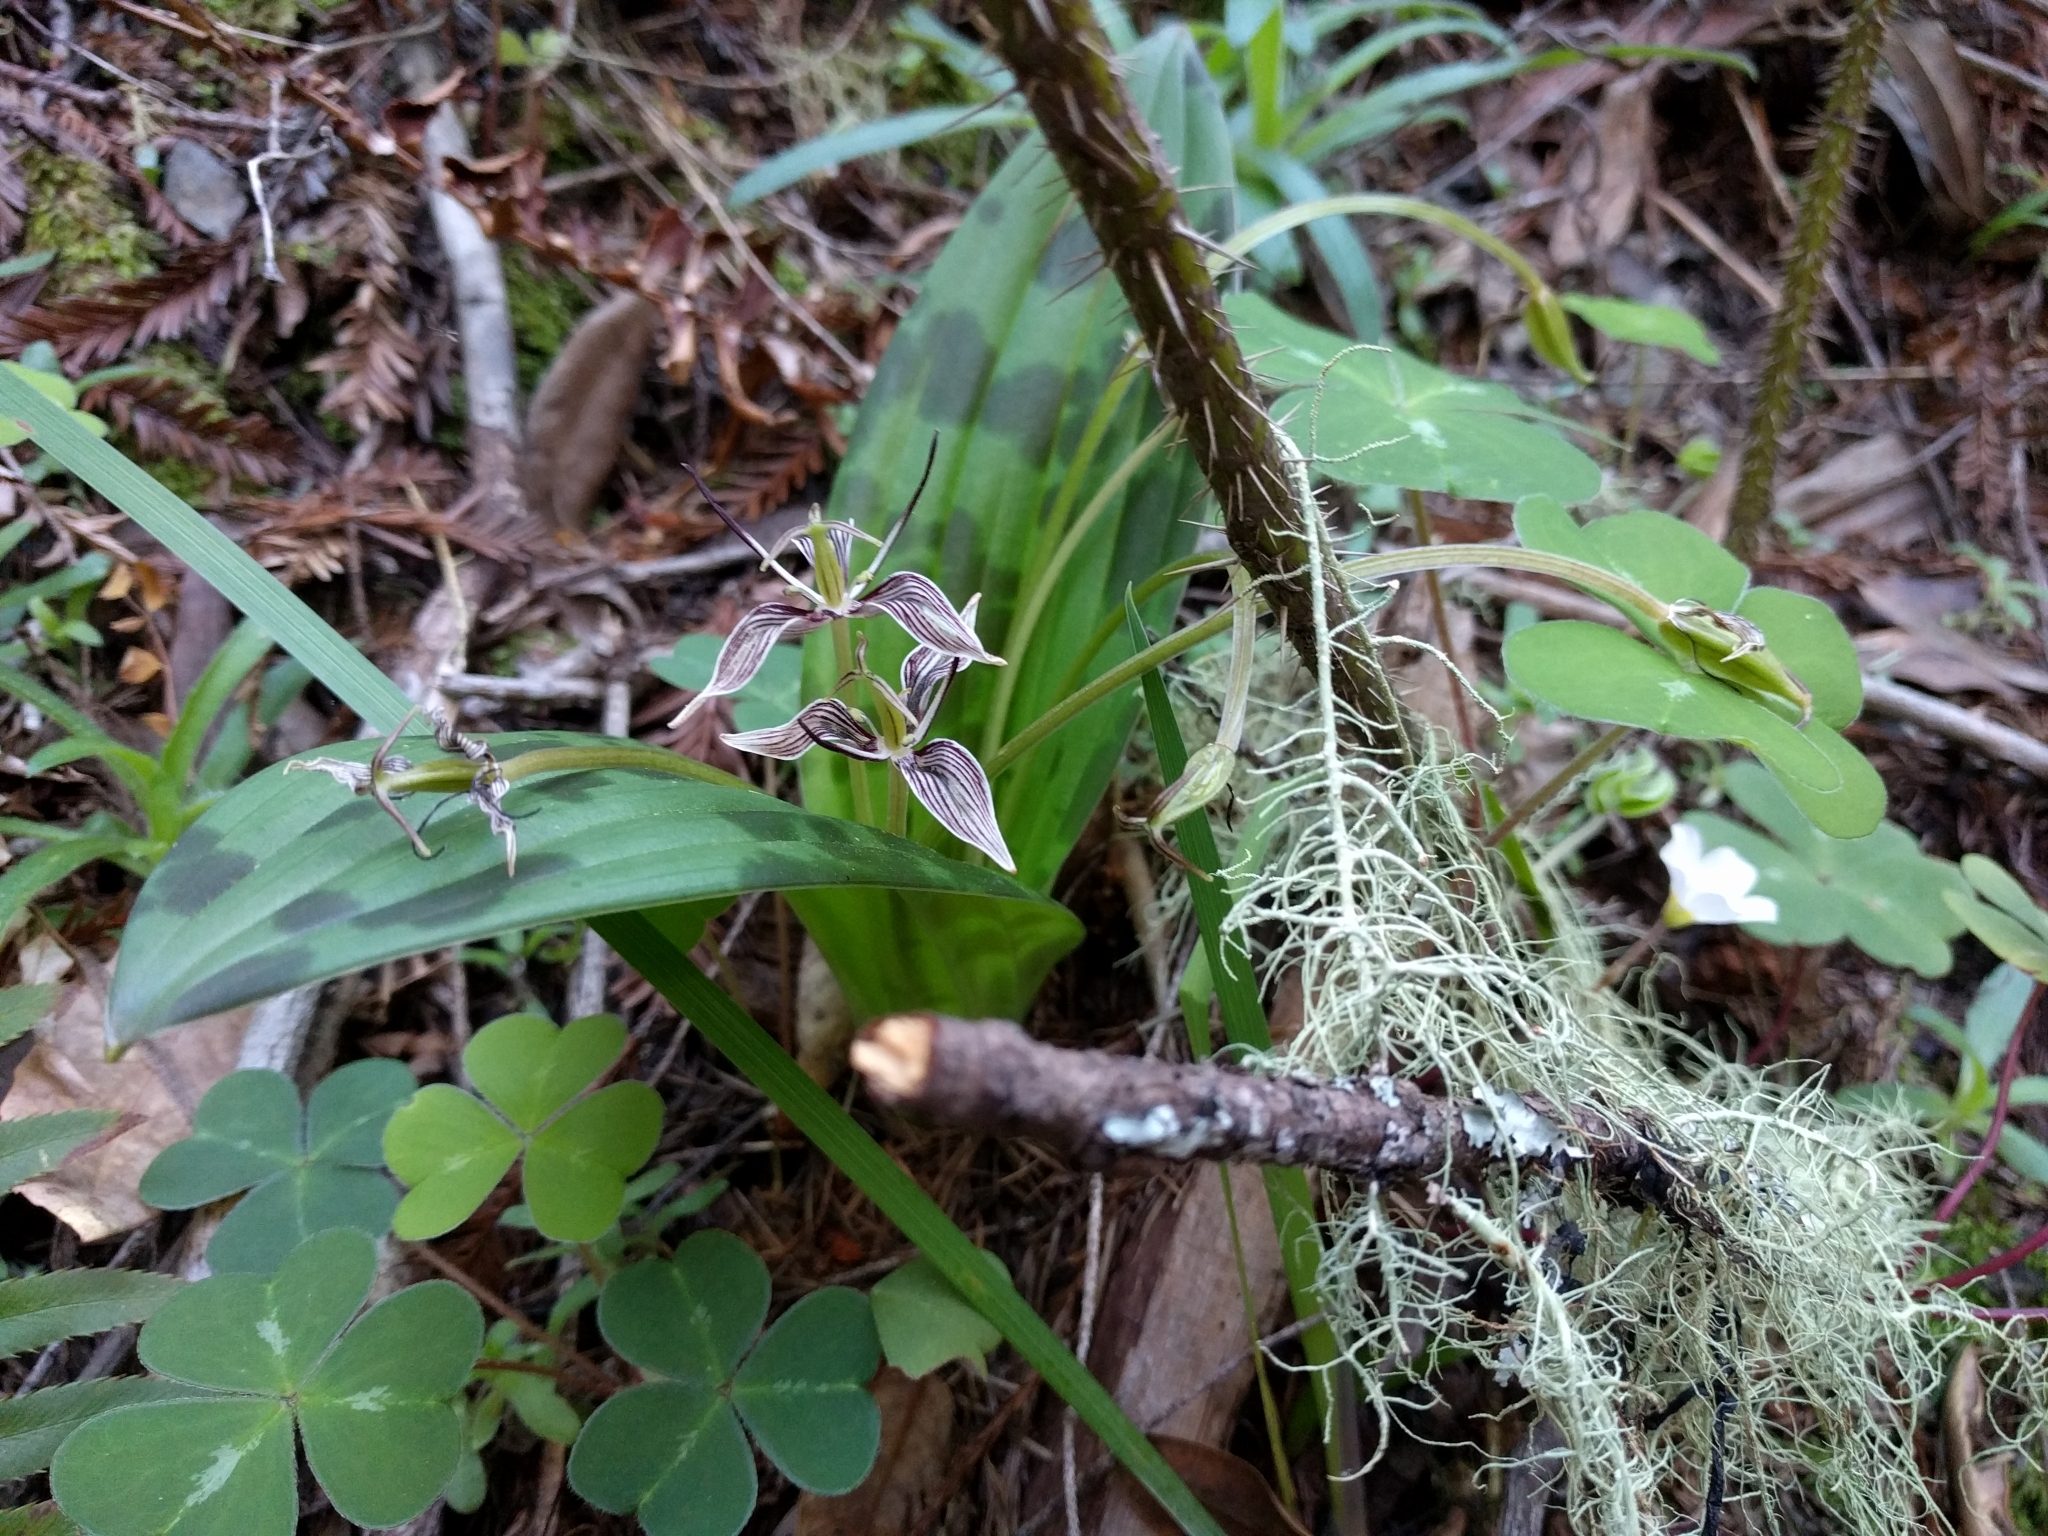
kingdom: Plantae
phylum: Tracheophyta
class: Liliopsida
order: Liliales
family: Liliaceae
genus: Scoliopus
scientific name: Scoliopus bigelovii
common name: Foetid adder's-tongue
